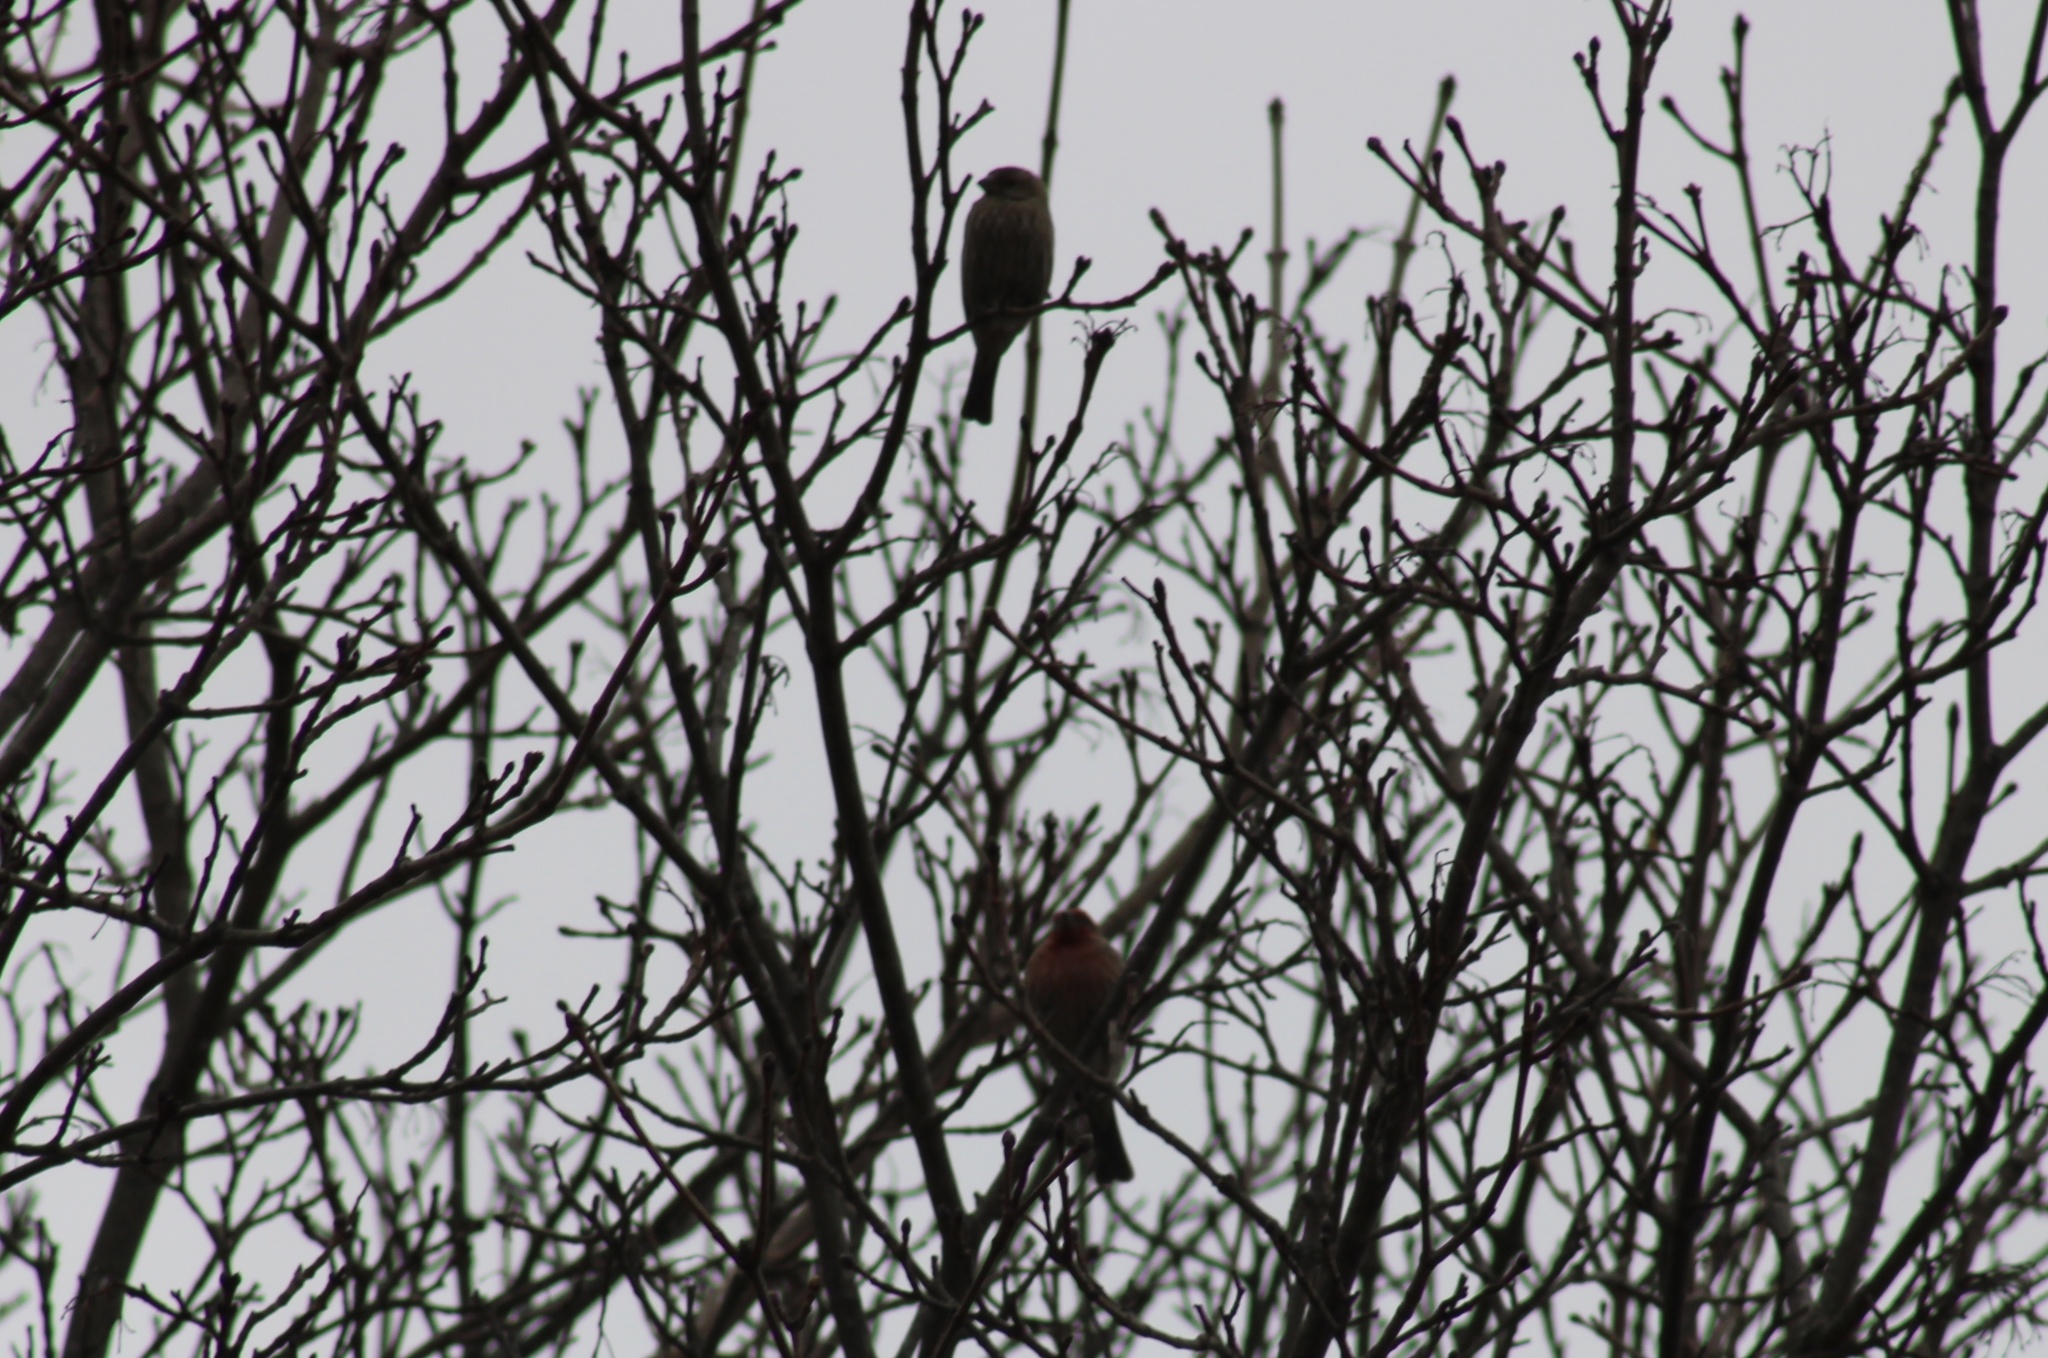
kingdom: Animalia
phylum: Chordata
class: Aves
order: Passeriformes
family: Fringillidae
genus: Haemorhous
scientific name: Haemorhous mexicanus
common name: House finch
